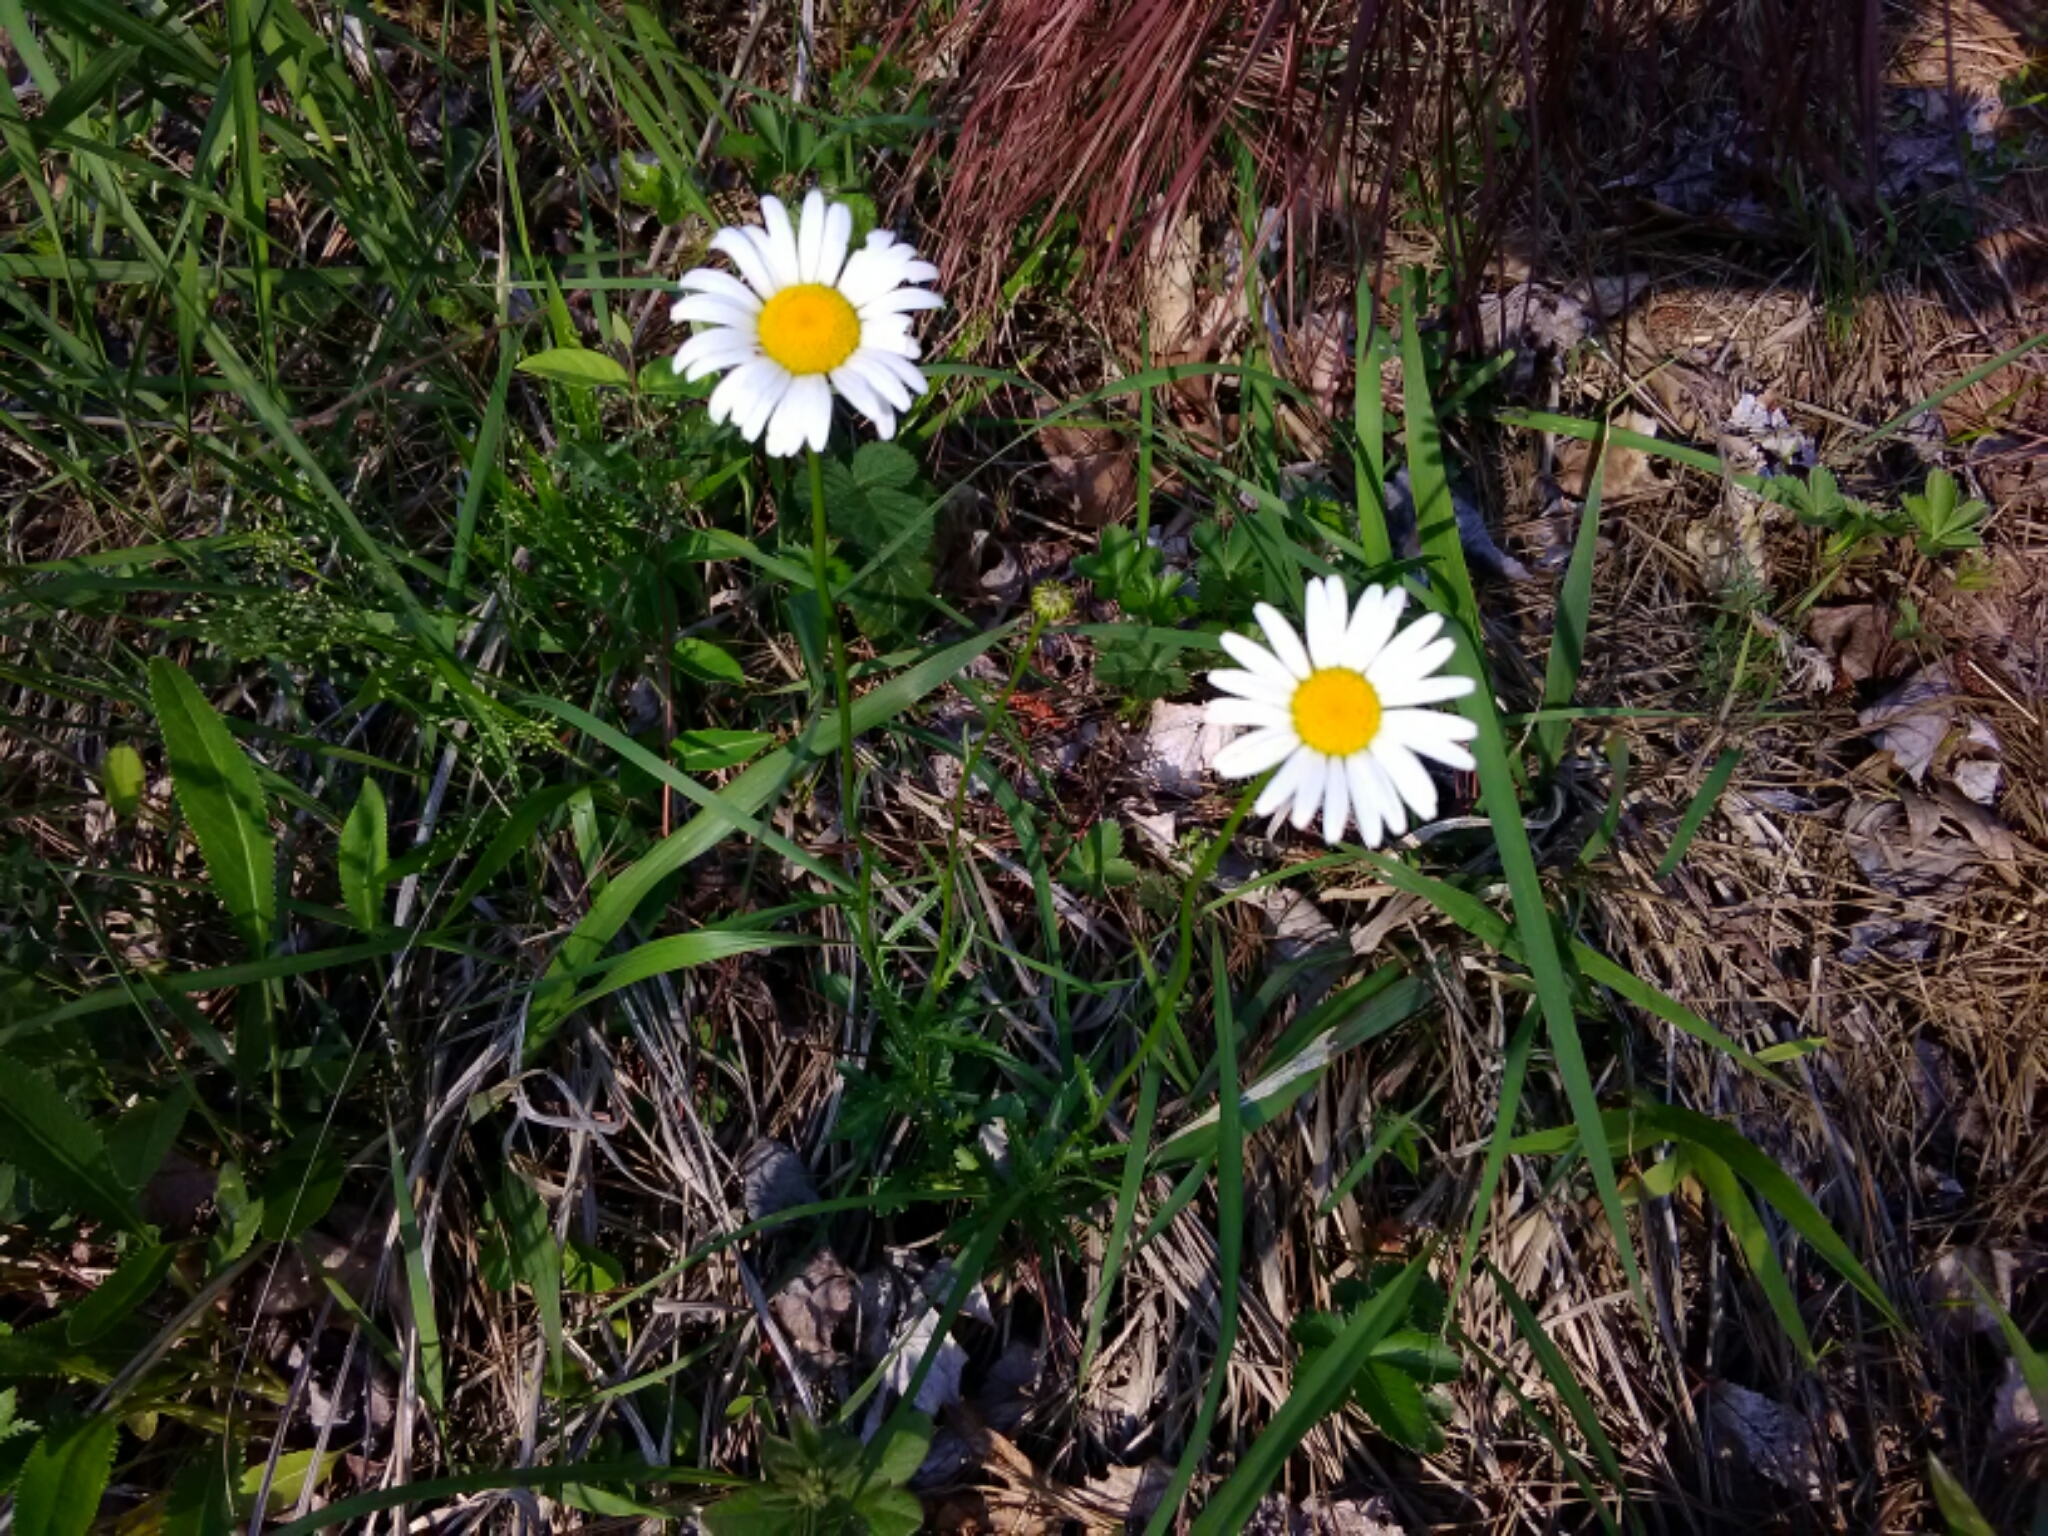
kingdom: Plantae
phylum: Tracheophyta
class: Magnoliopsida
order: Asterales
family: Asteraceae
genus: Leucanthemum
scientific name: Leucanthemum vulgare
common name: Oxeye daisy
